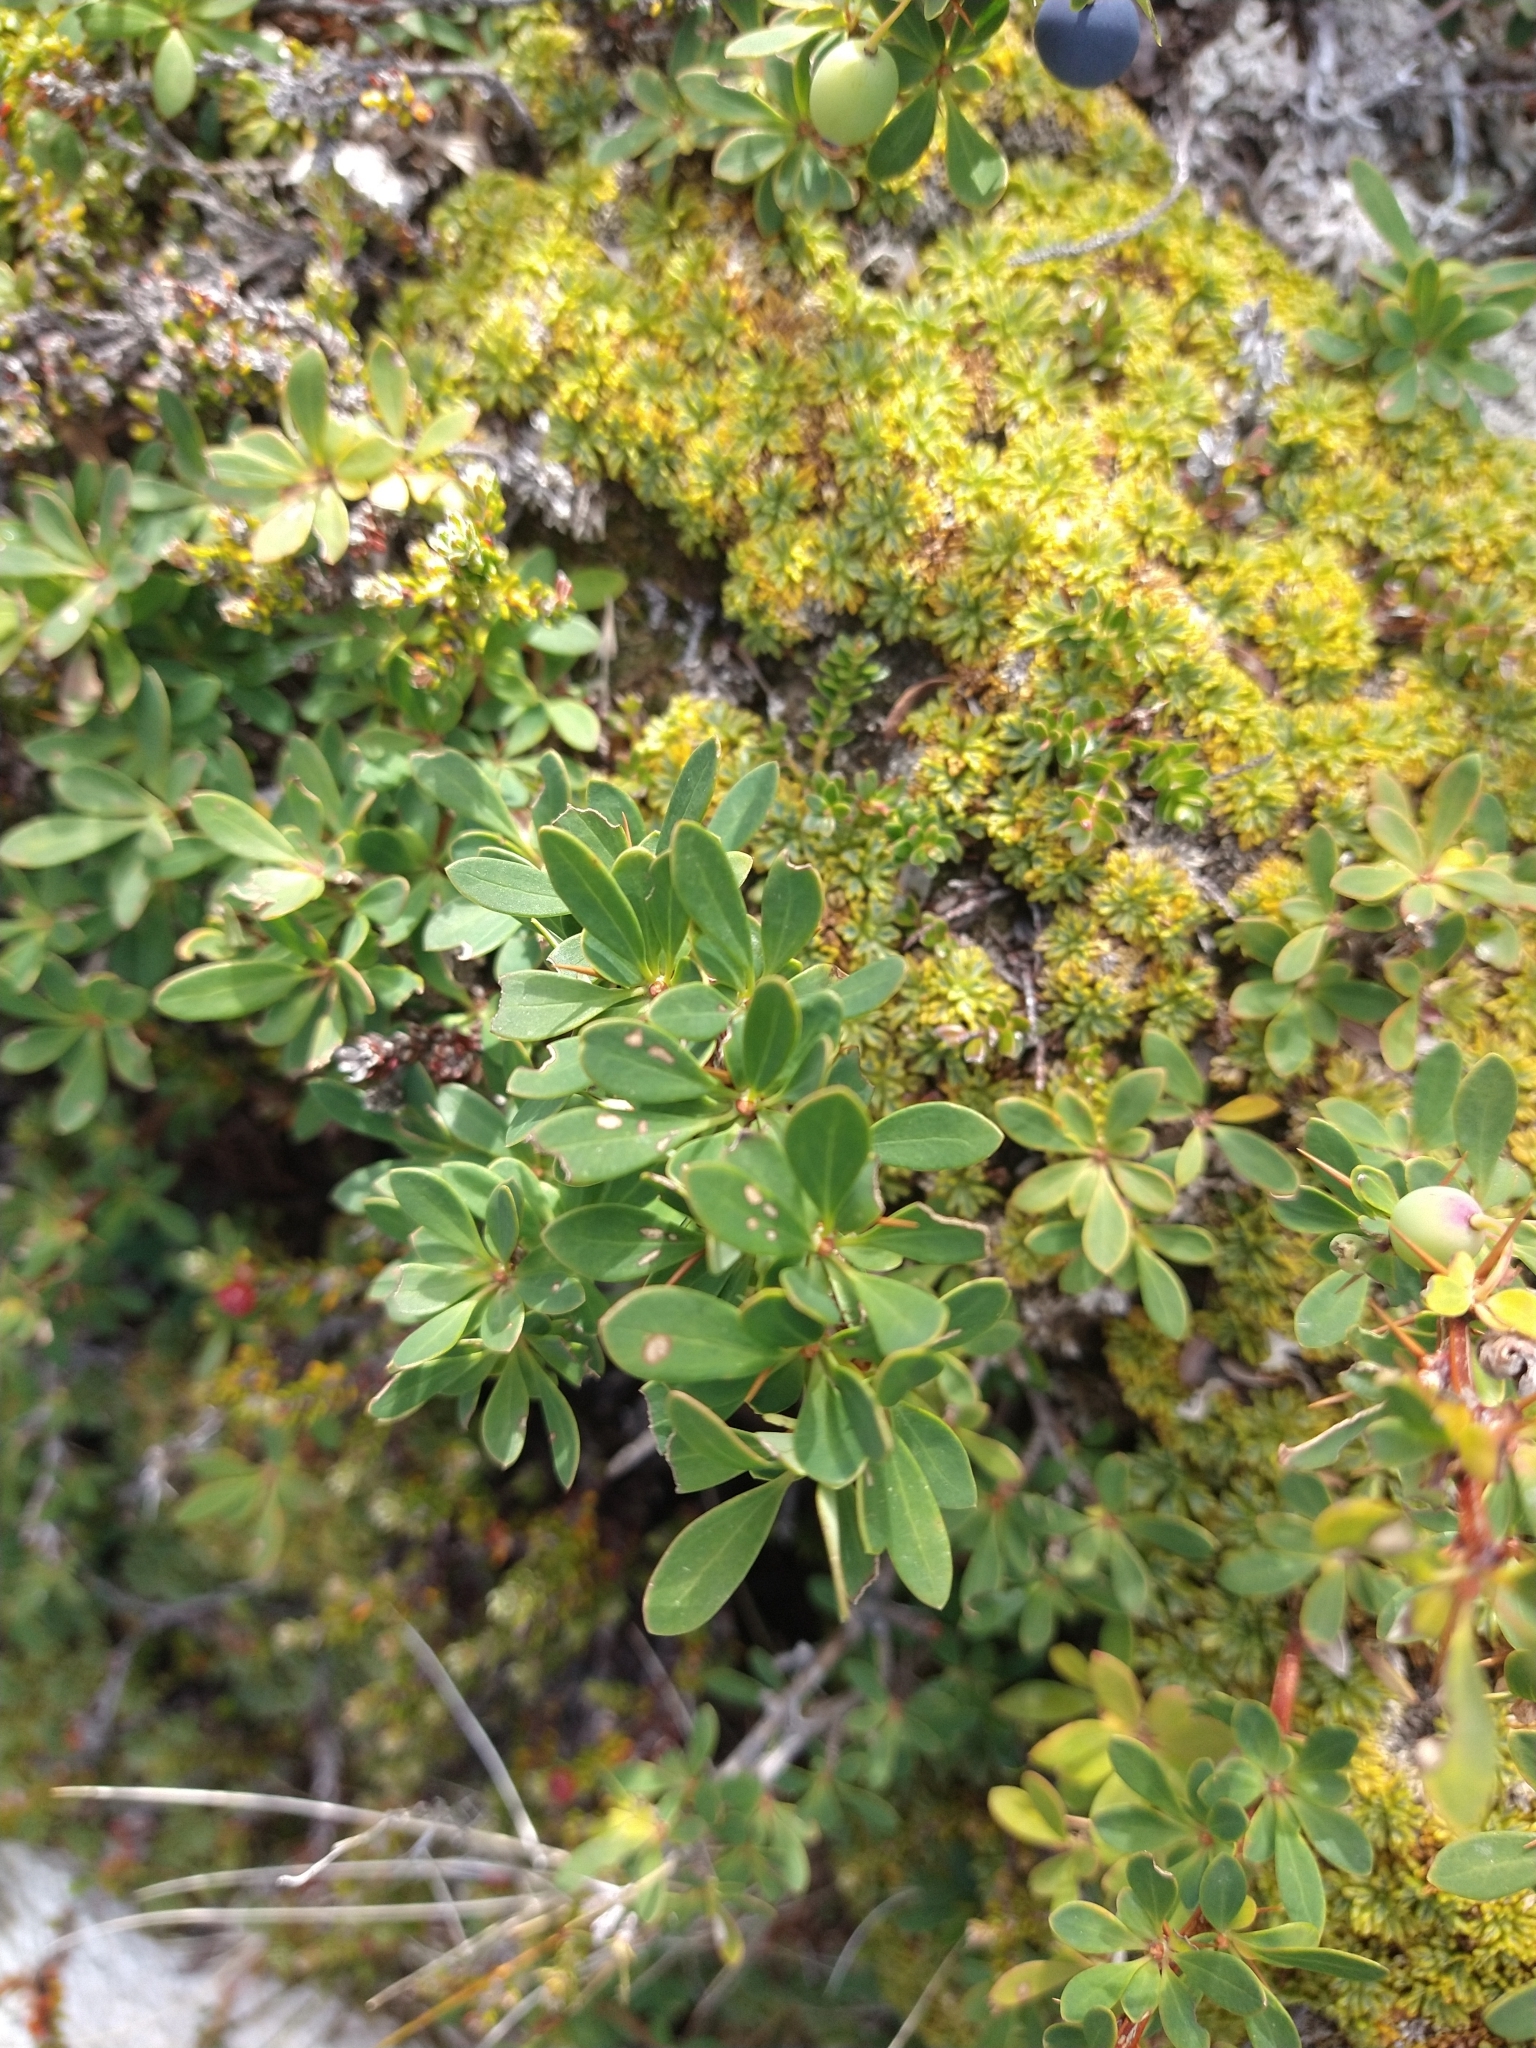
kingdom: Plantae
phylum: Tracheophyta
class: Magnoliopsida
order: Ranunculales
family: Berberidaceae
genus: Berberis
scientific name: Berberis microphylla
